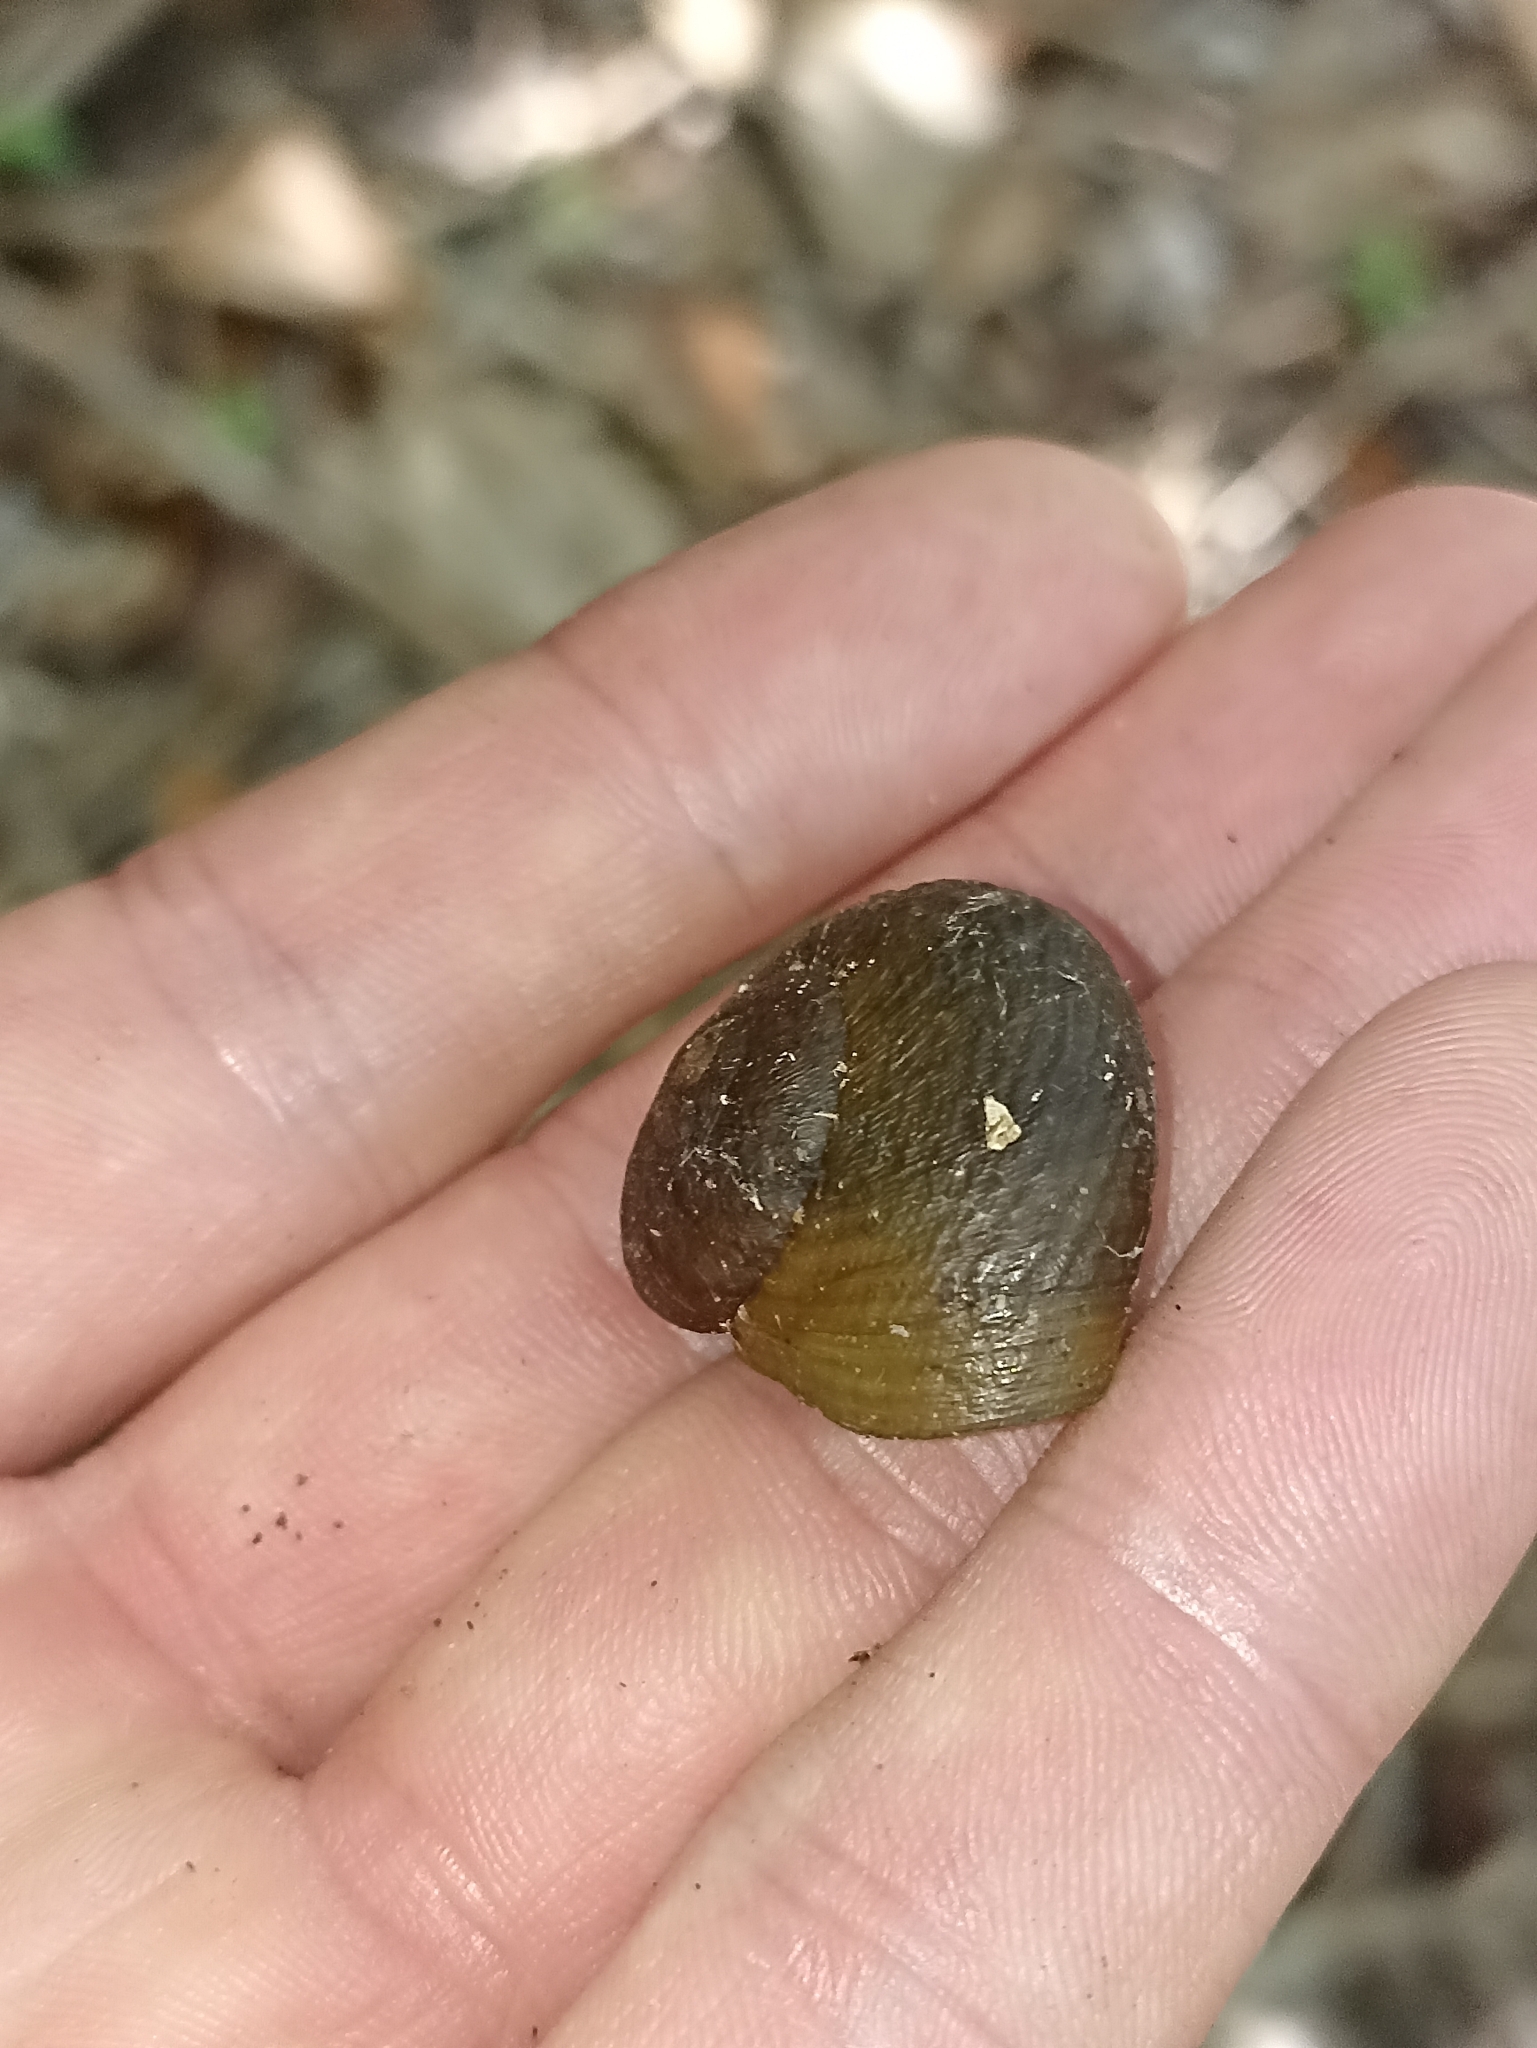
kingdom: Animalia
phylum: Mollusca
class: Gastropoda
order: Stylommatophora
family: Rhytididae
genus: Rhytida
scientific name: Rhytida greenwoodi
